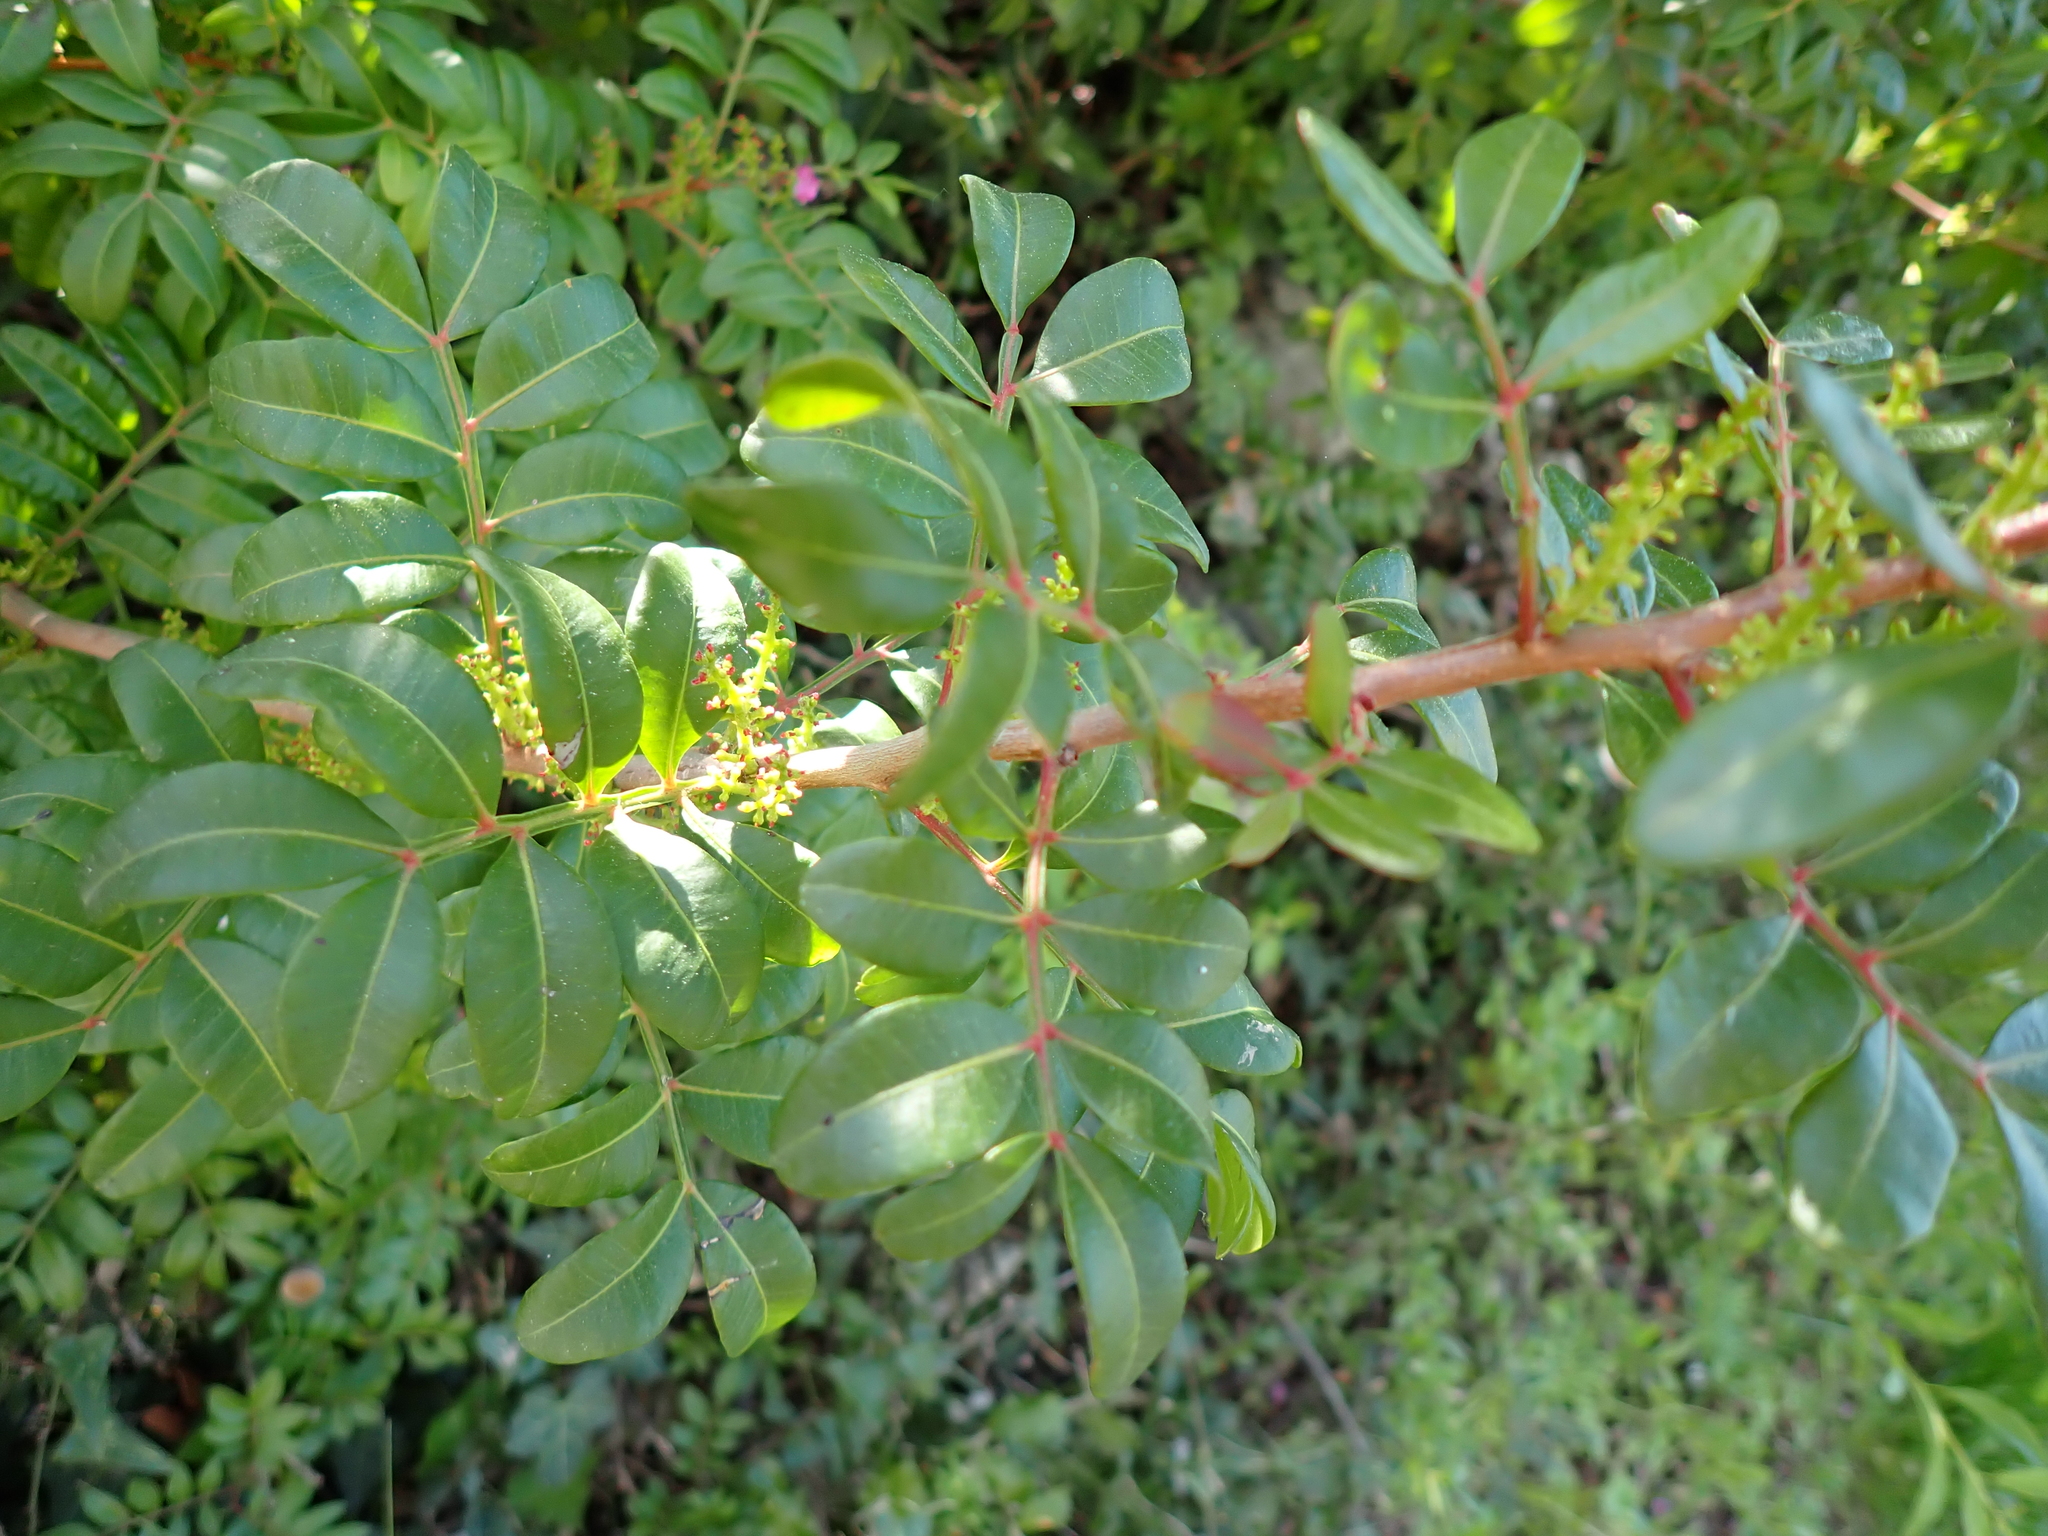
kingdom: Plantae
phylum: Tracheophyta
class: Magnoliopsida
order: Sapindales
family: Anacardiaceae
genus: Pistacia
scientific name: Pistacia lentiscus
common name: Lentisk
